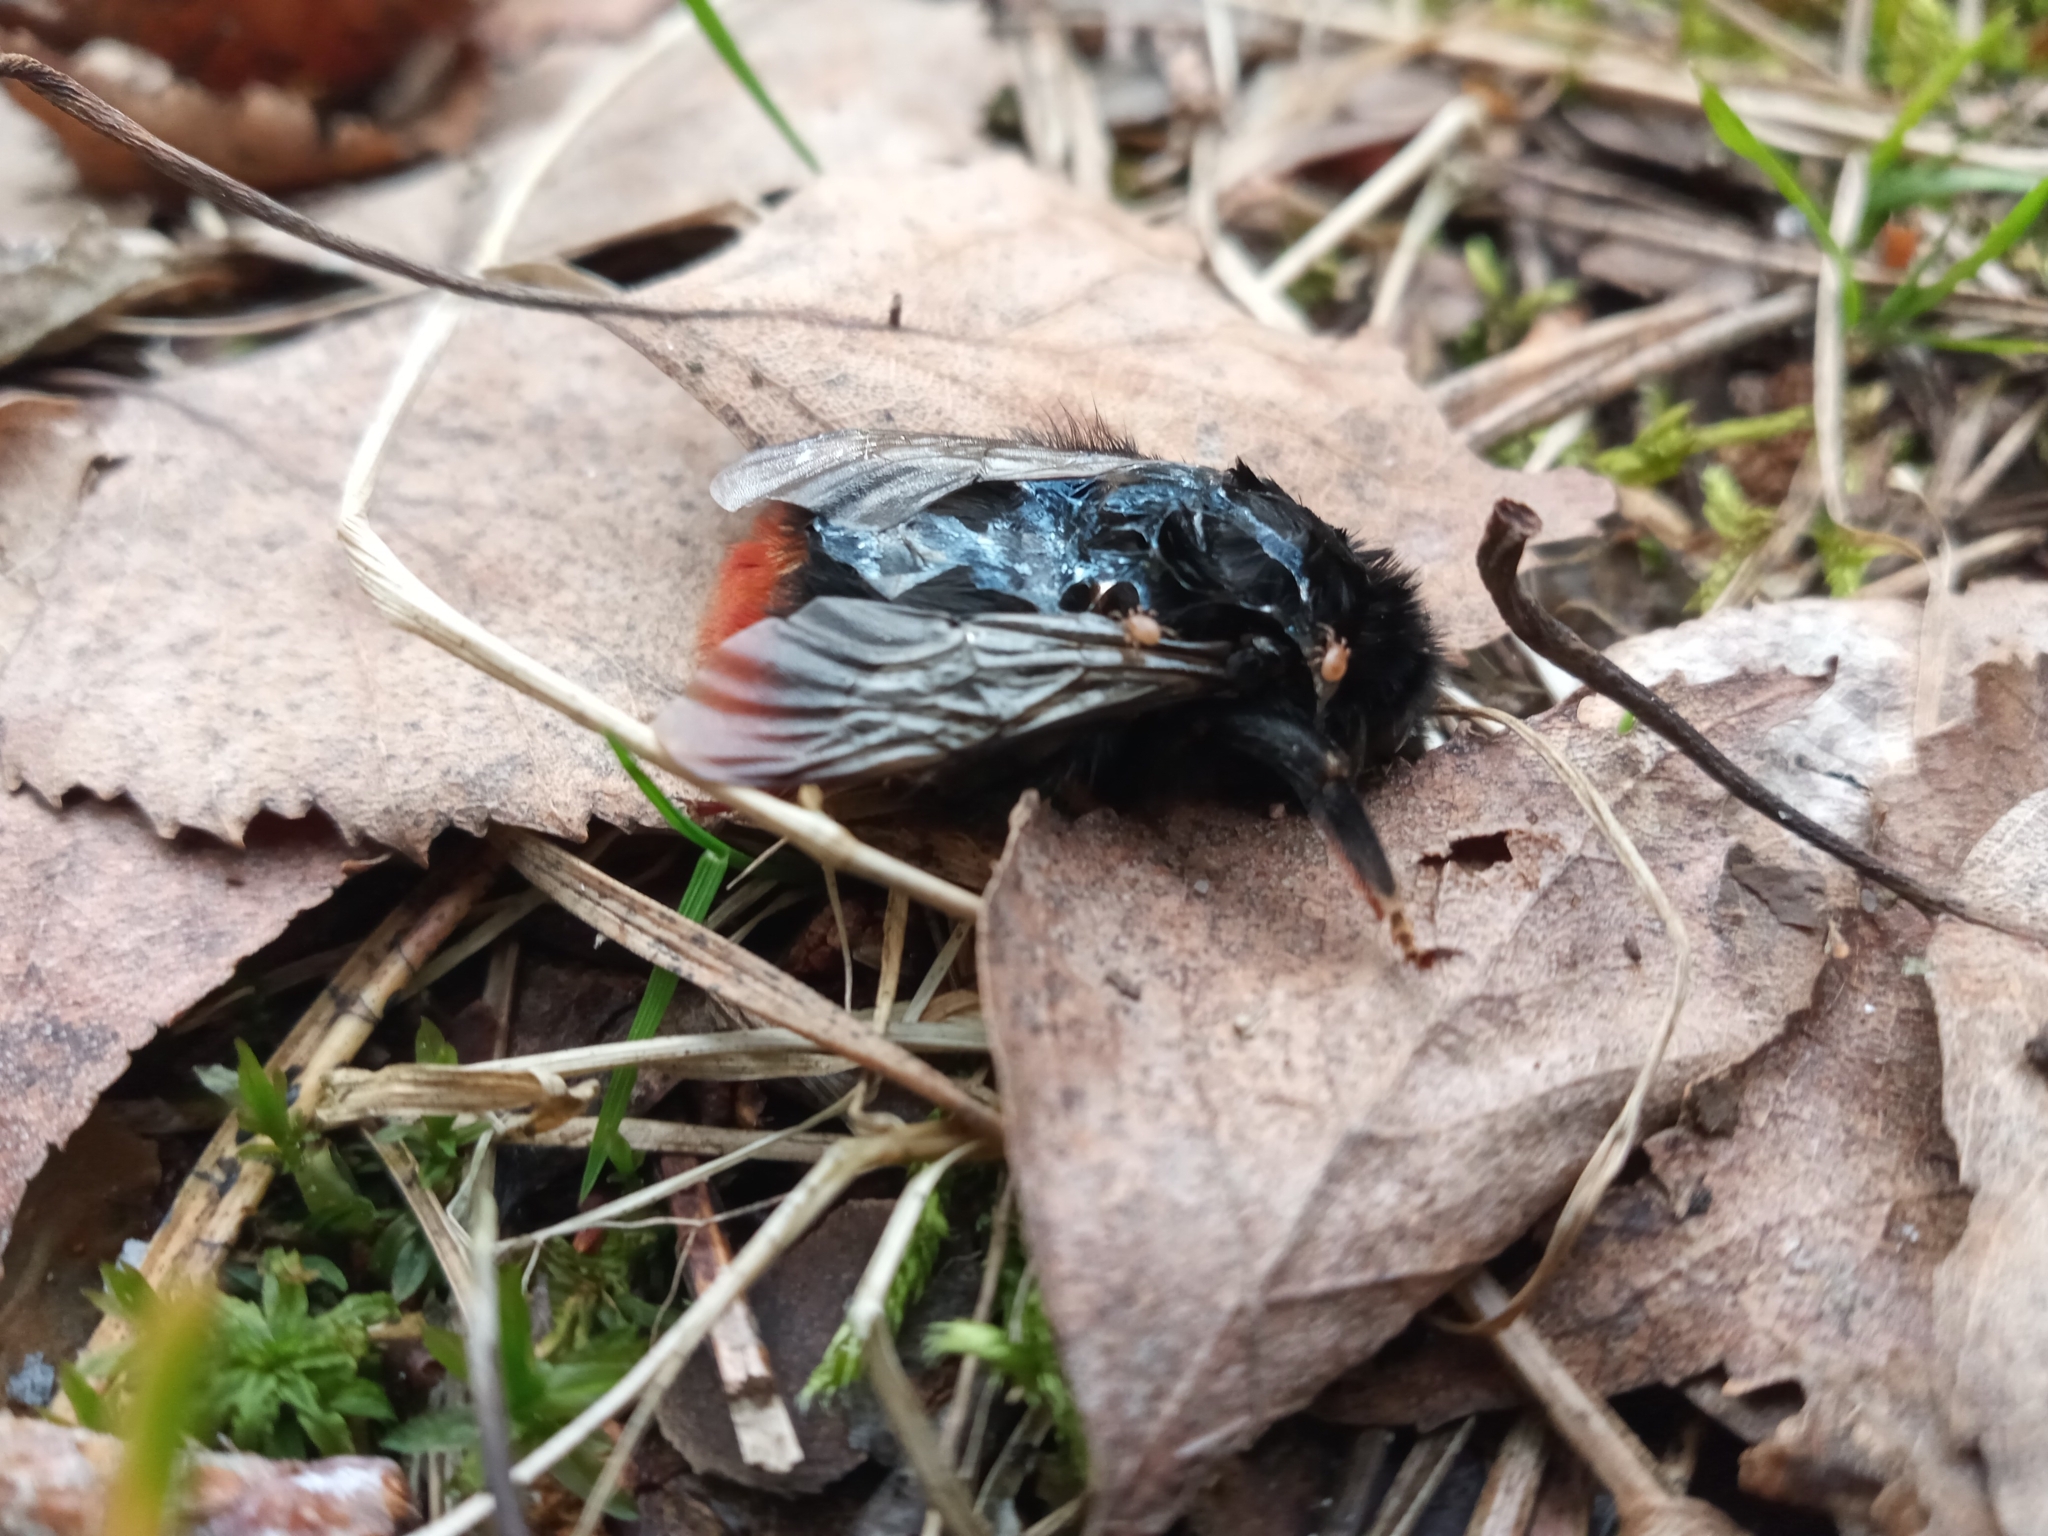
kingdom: Animalia
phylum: Arthropoda
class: Insecta
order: Hymenoptera
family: Apidae
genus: Bombus
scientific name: Bombus lapidarius
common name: Large red-tailed humble-bee
